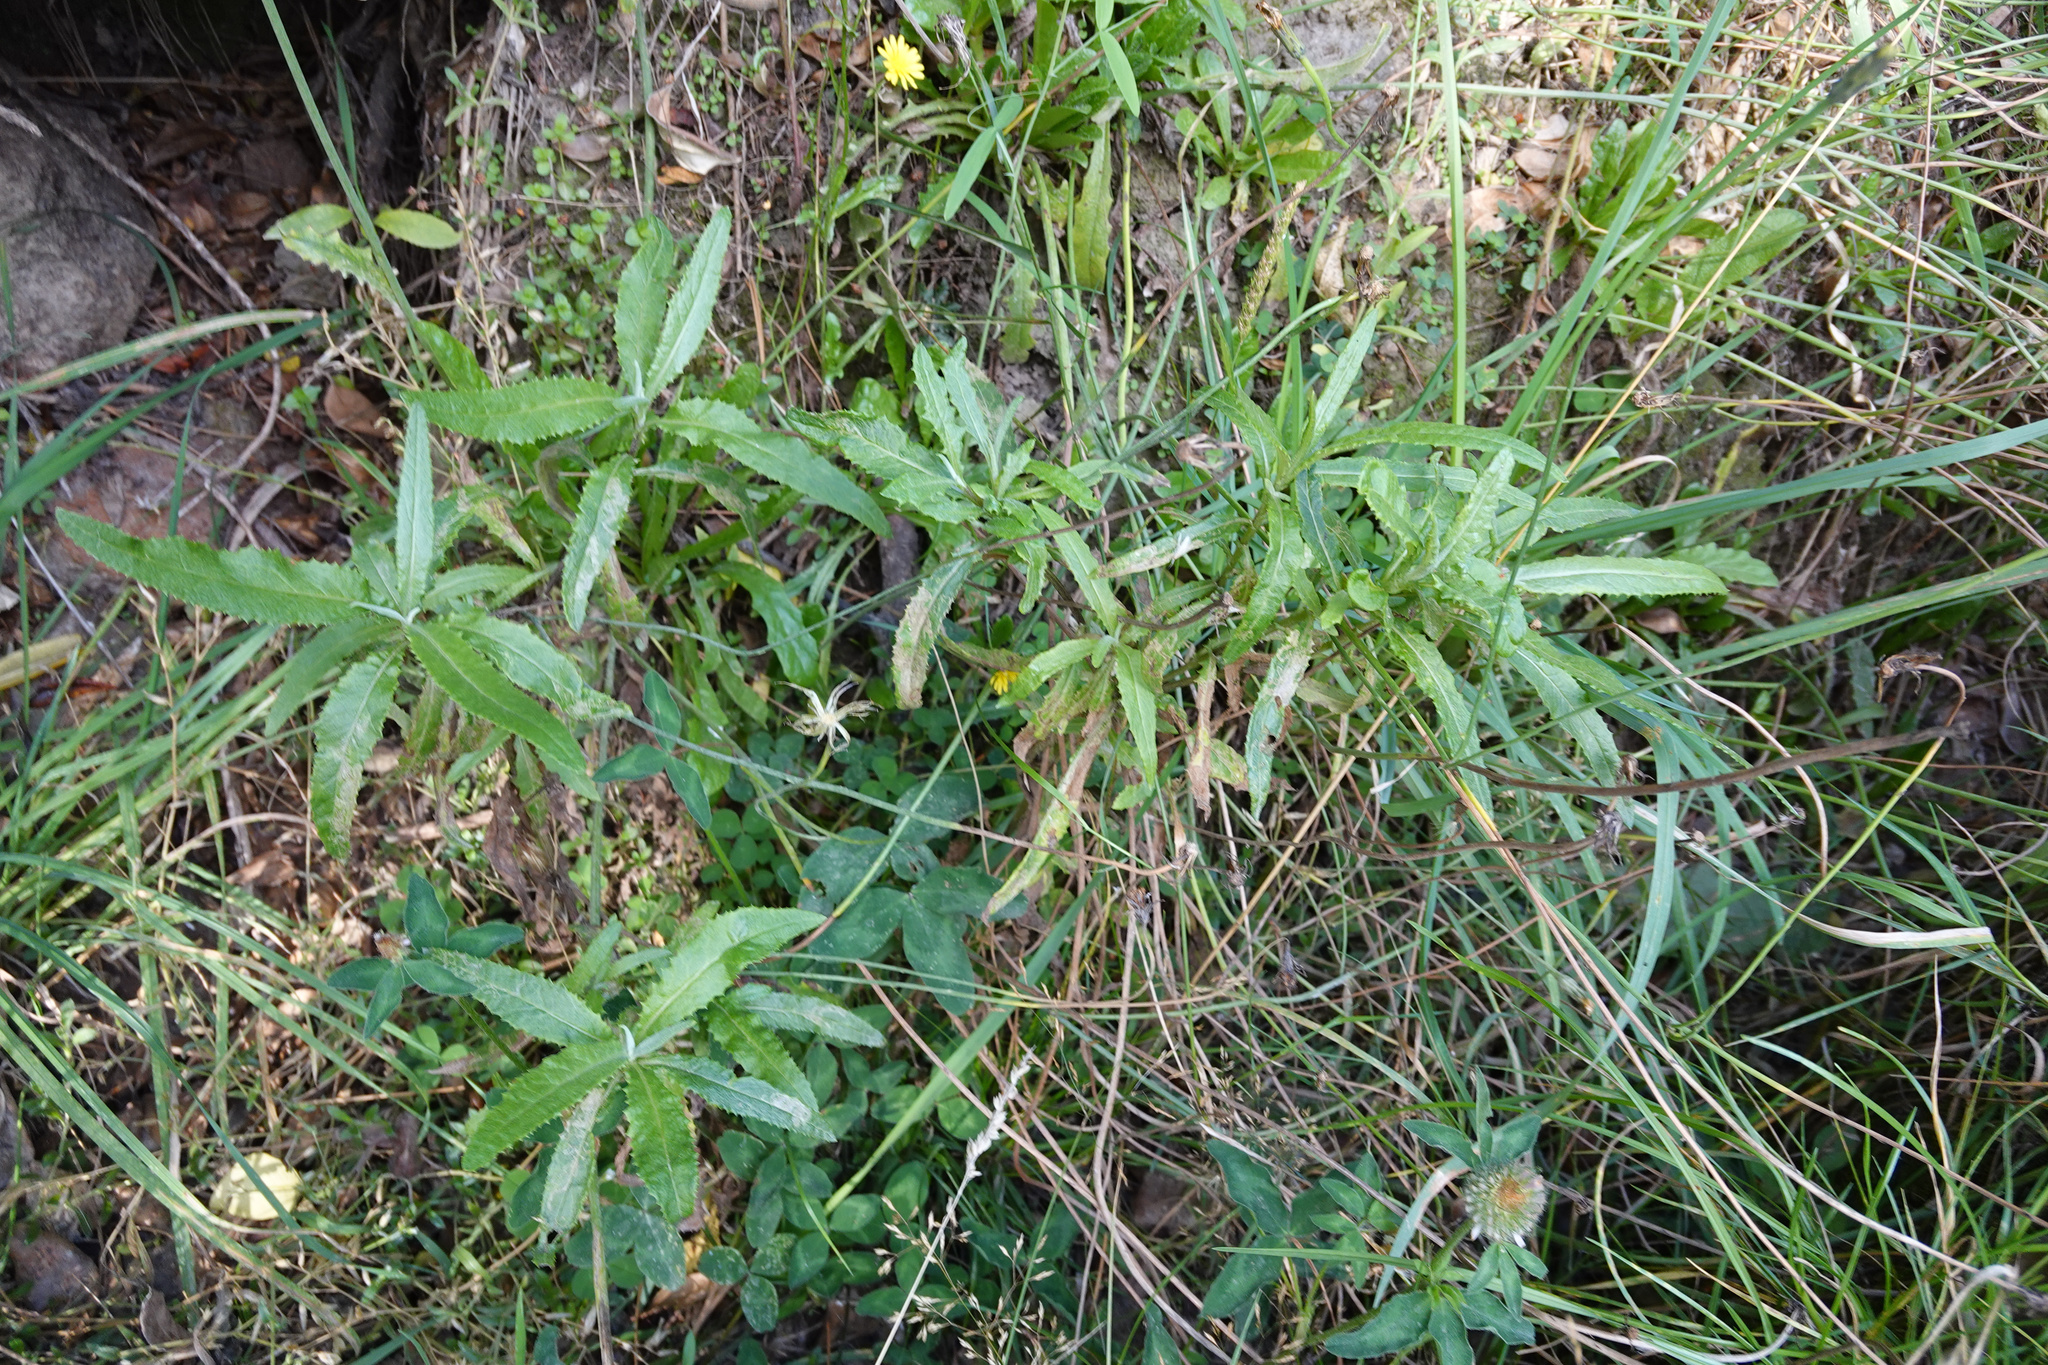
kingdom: Plantae
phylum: Tracheophyta
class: Magnoliopsida
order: Asterales
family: Asteraceae
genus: Senecio
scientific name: Senecio minimus
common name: Toothed fireweed
